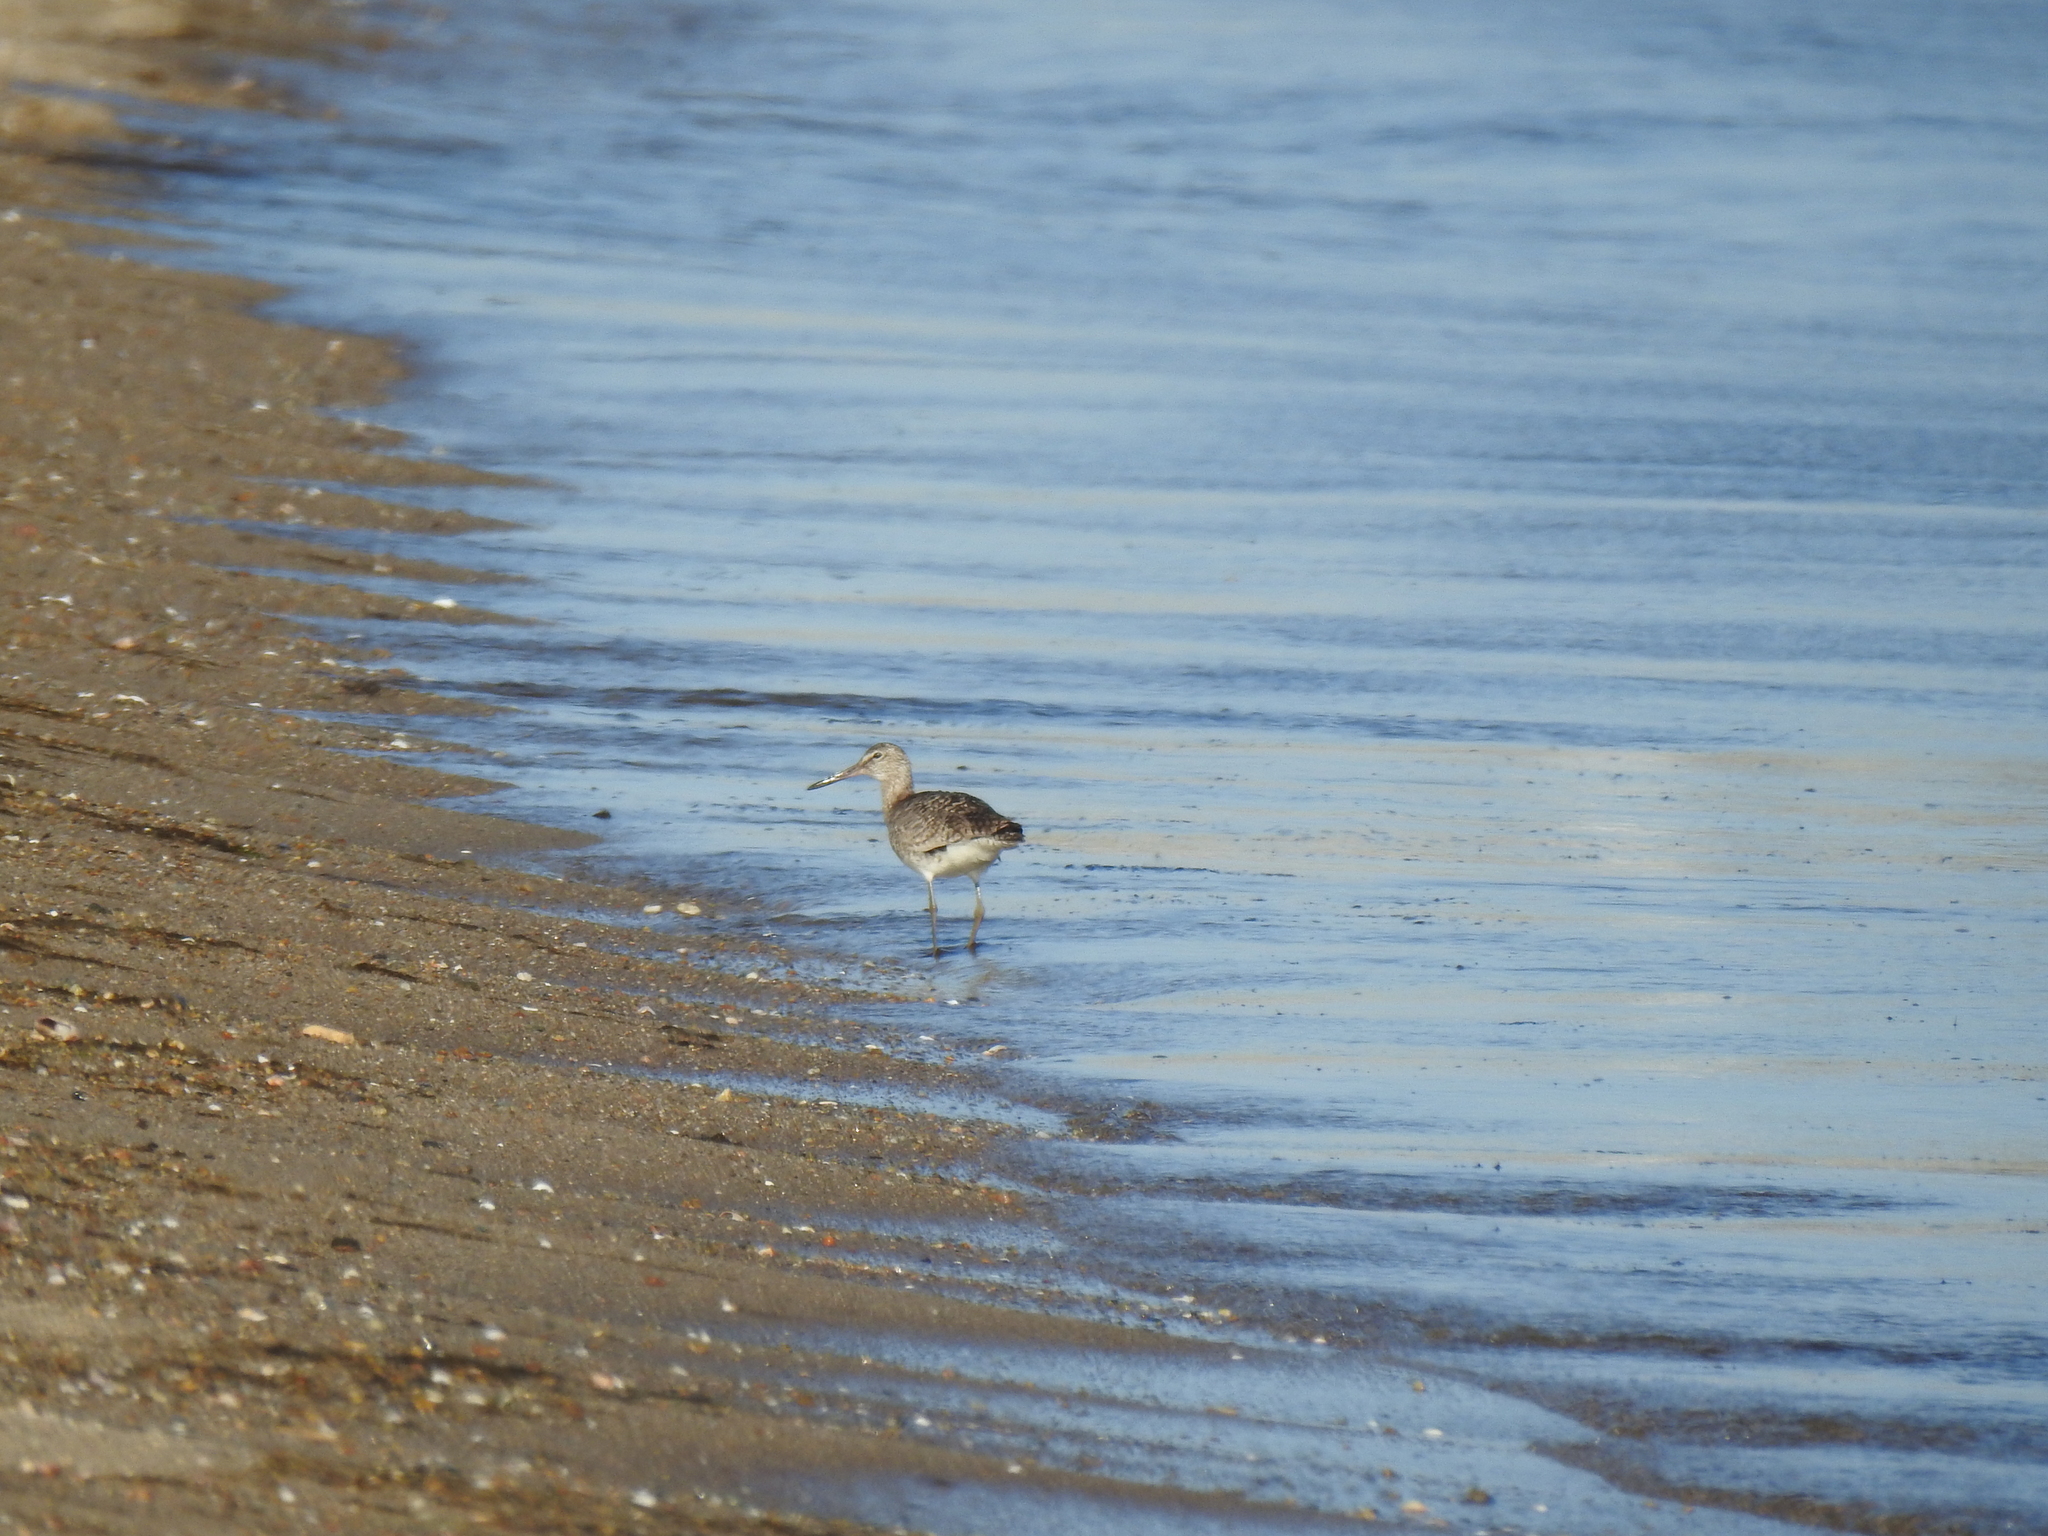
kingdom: Animalia
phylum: Chordata
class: Aves
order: Charadriiformes
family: Scolopacidae
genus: Tringa
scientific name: Tringa semipalmata
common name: Willet
